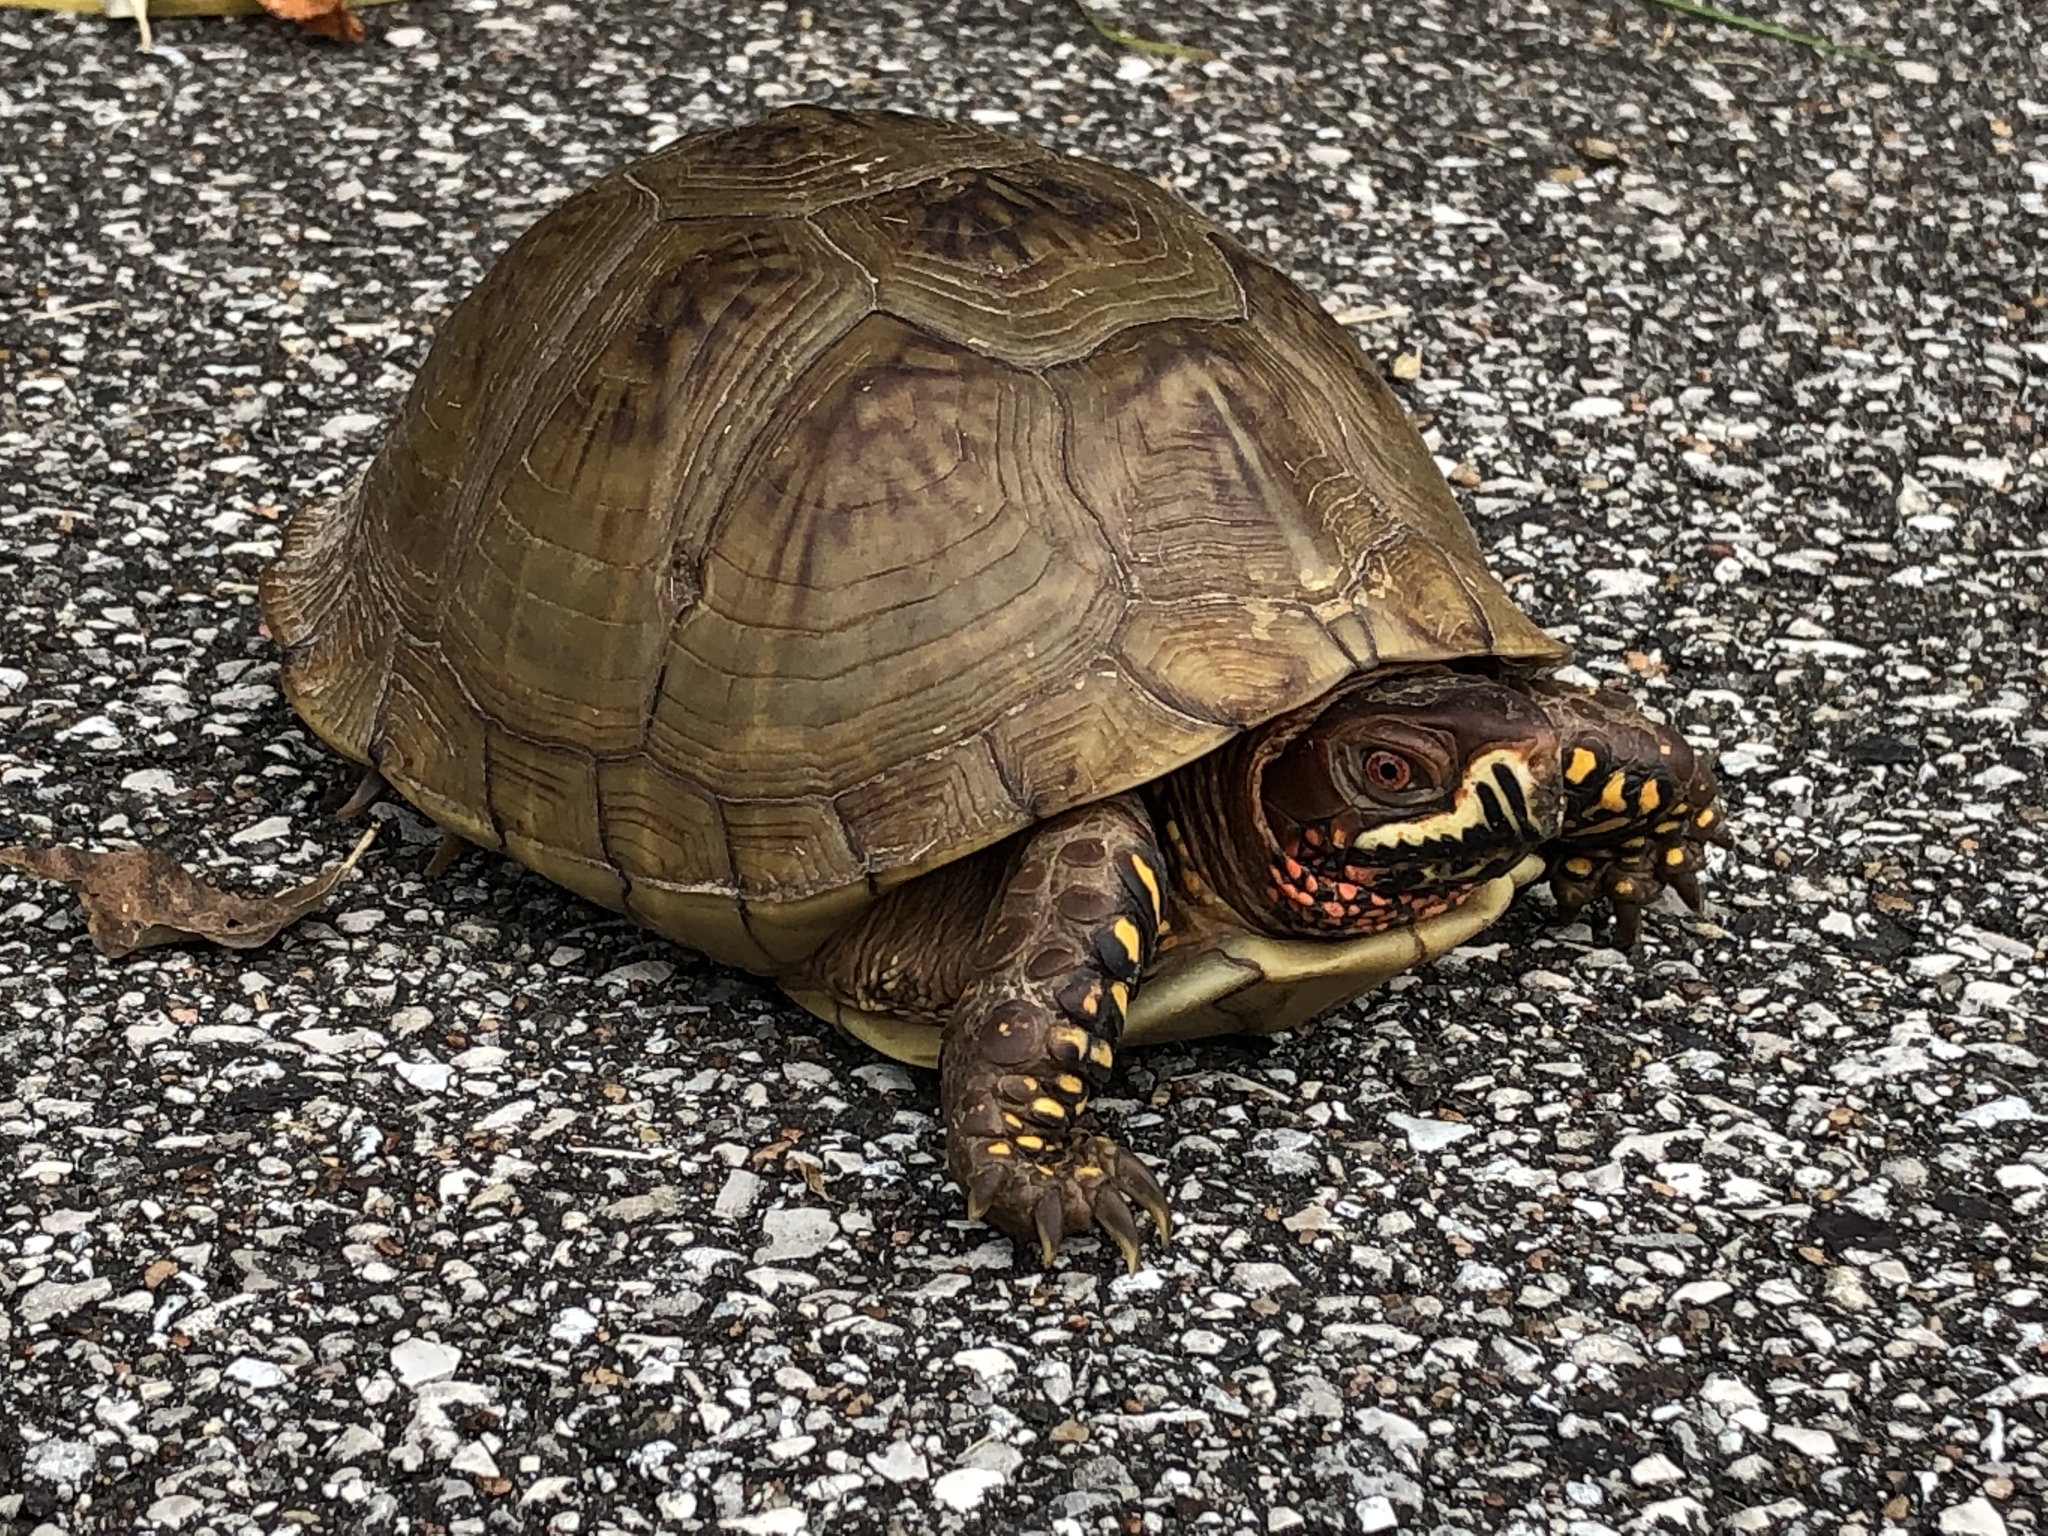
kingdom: Animalia
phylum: Chordata
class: Testudines
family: Emydidae
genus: Terrapene
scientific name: Terrapene carolina
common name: Common box turtle
